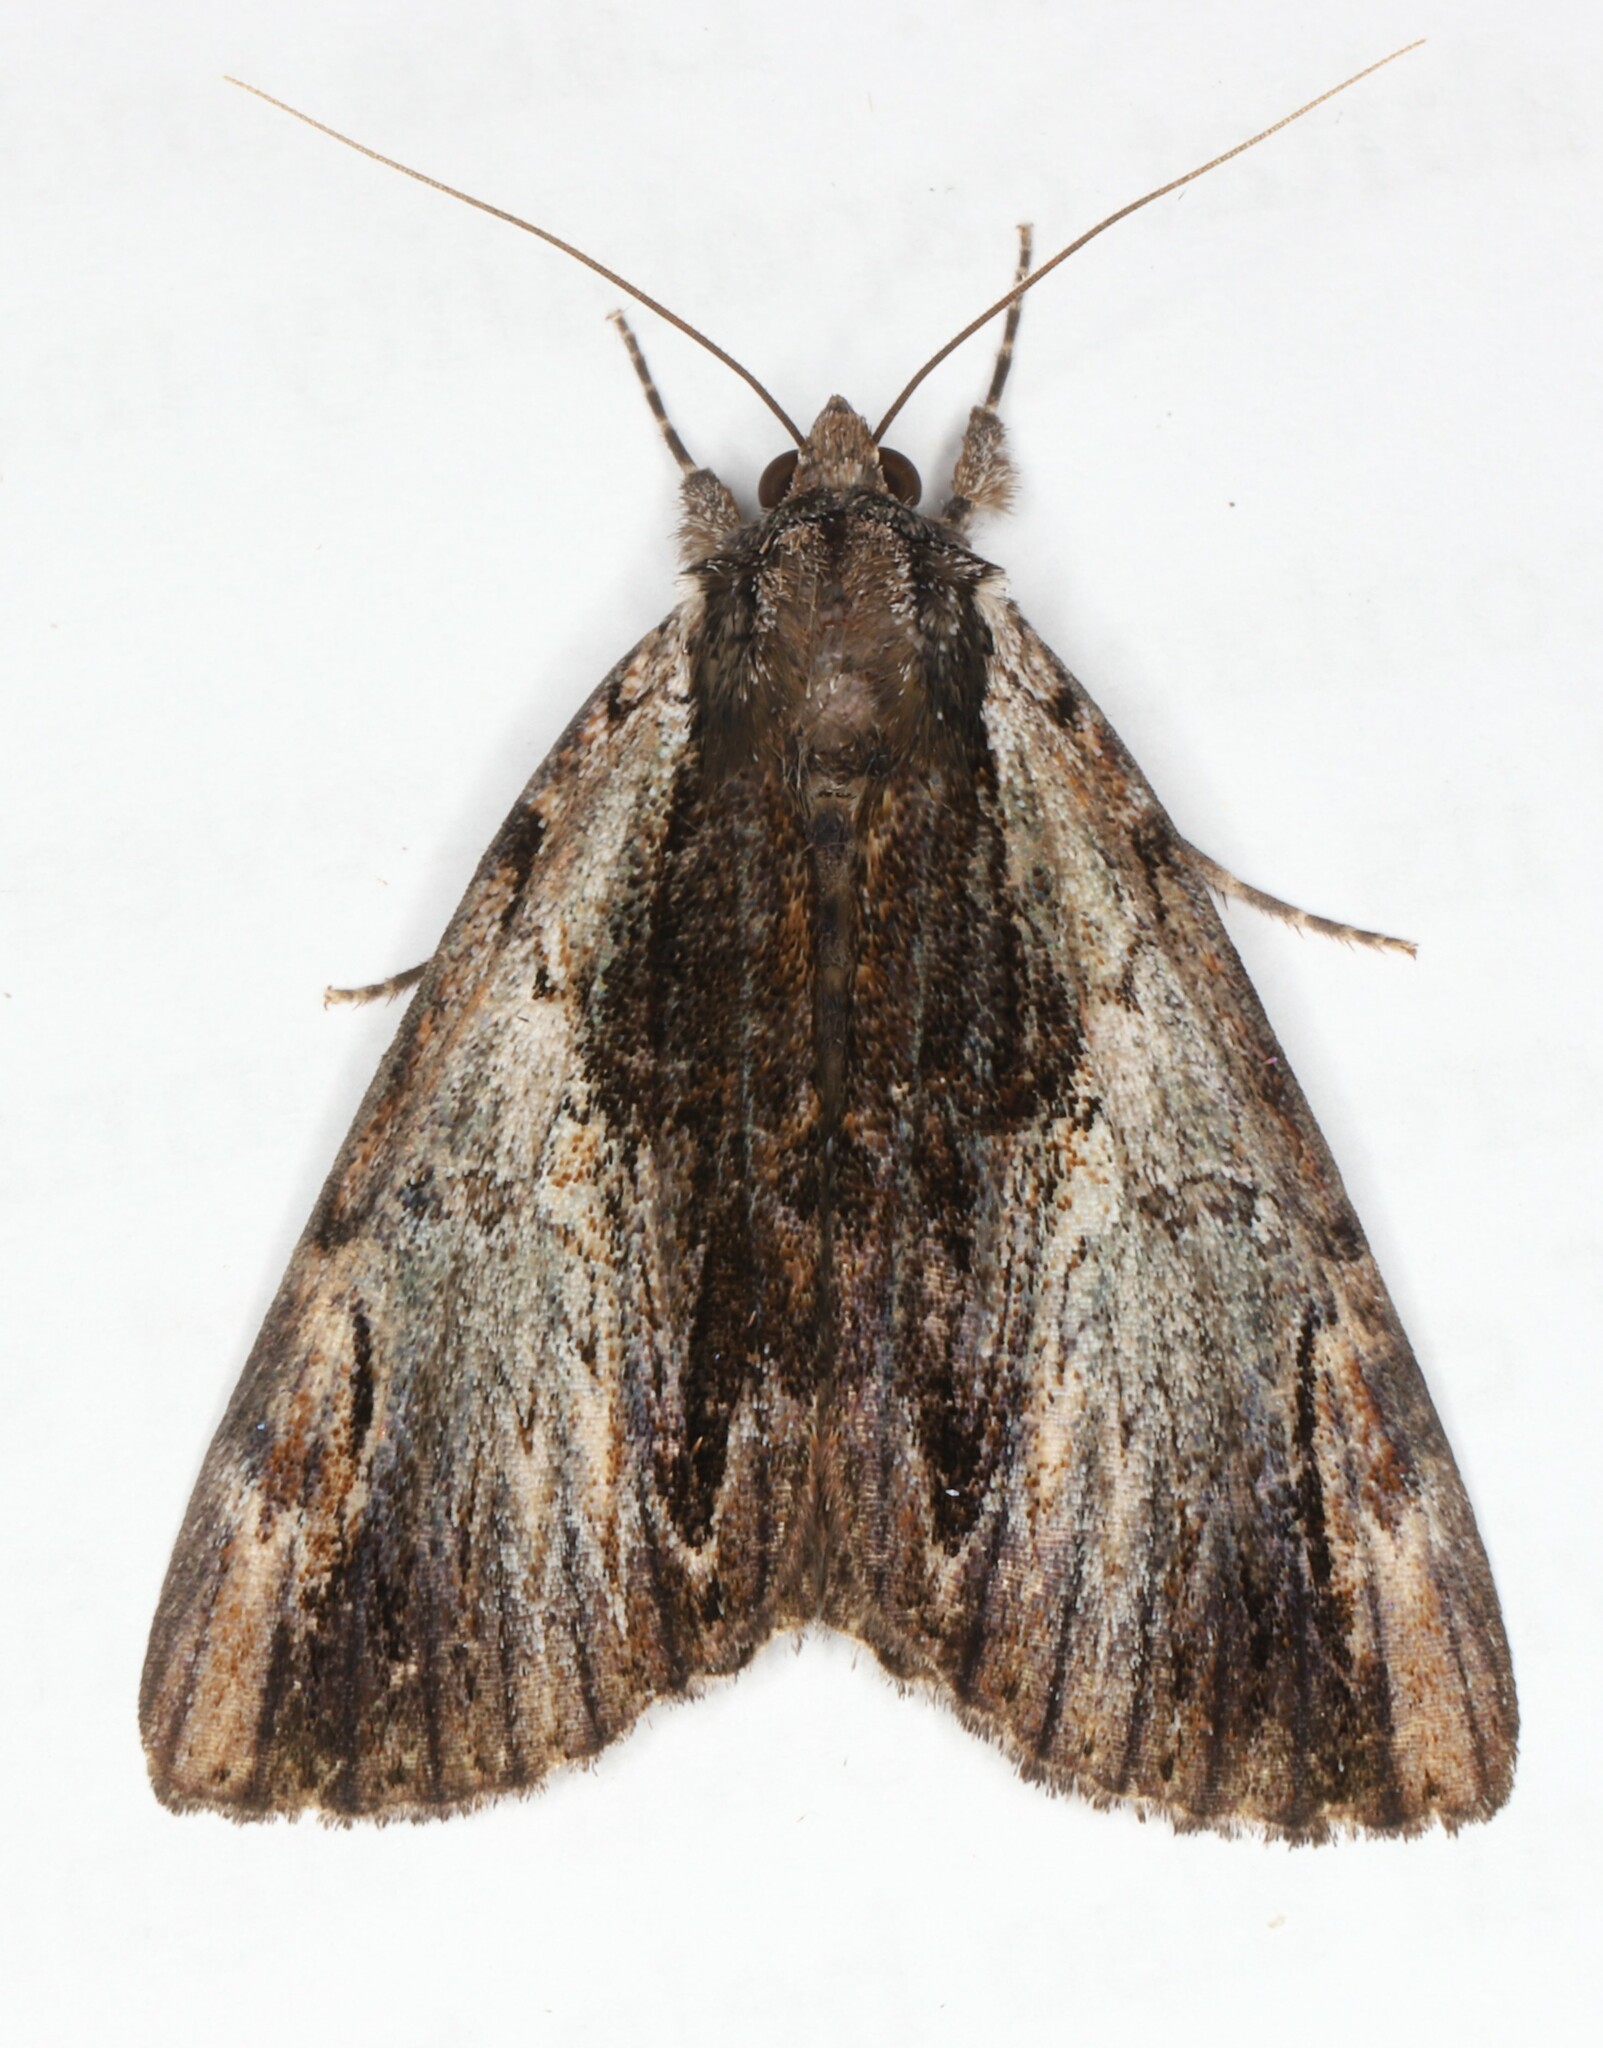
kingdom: Animalia
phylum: Arthropoda
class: Insecta
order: Lepidoptera
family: Erebidae
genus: Catocala
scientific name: Catocala ultronia
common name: Ultronia underwing
